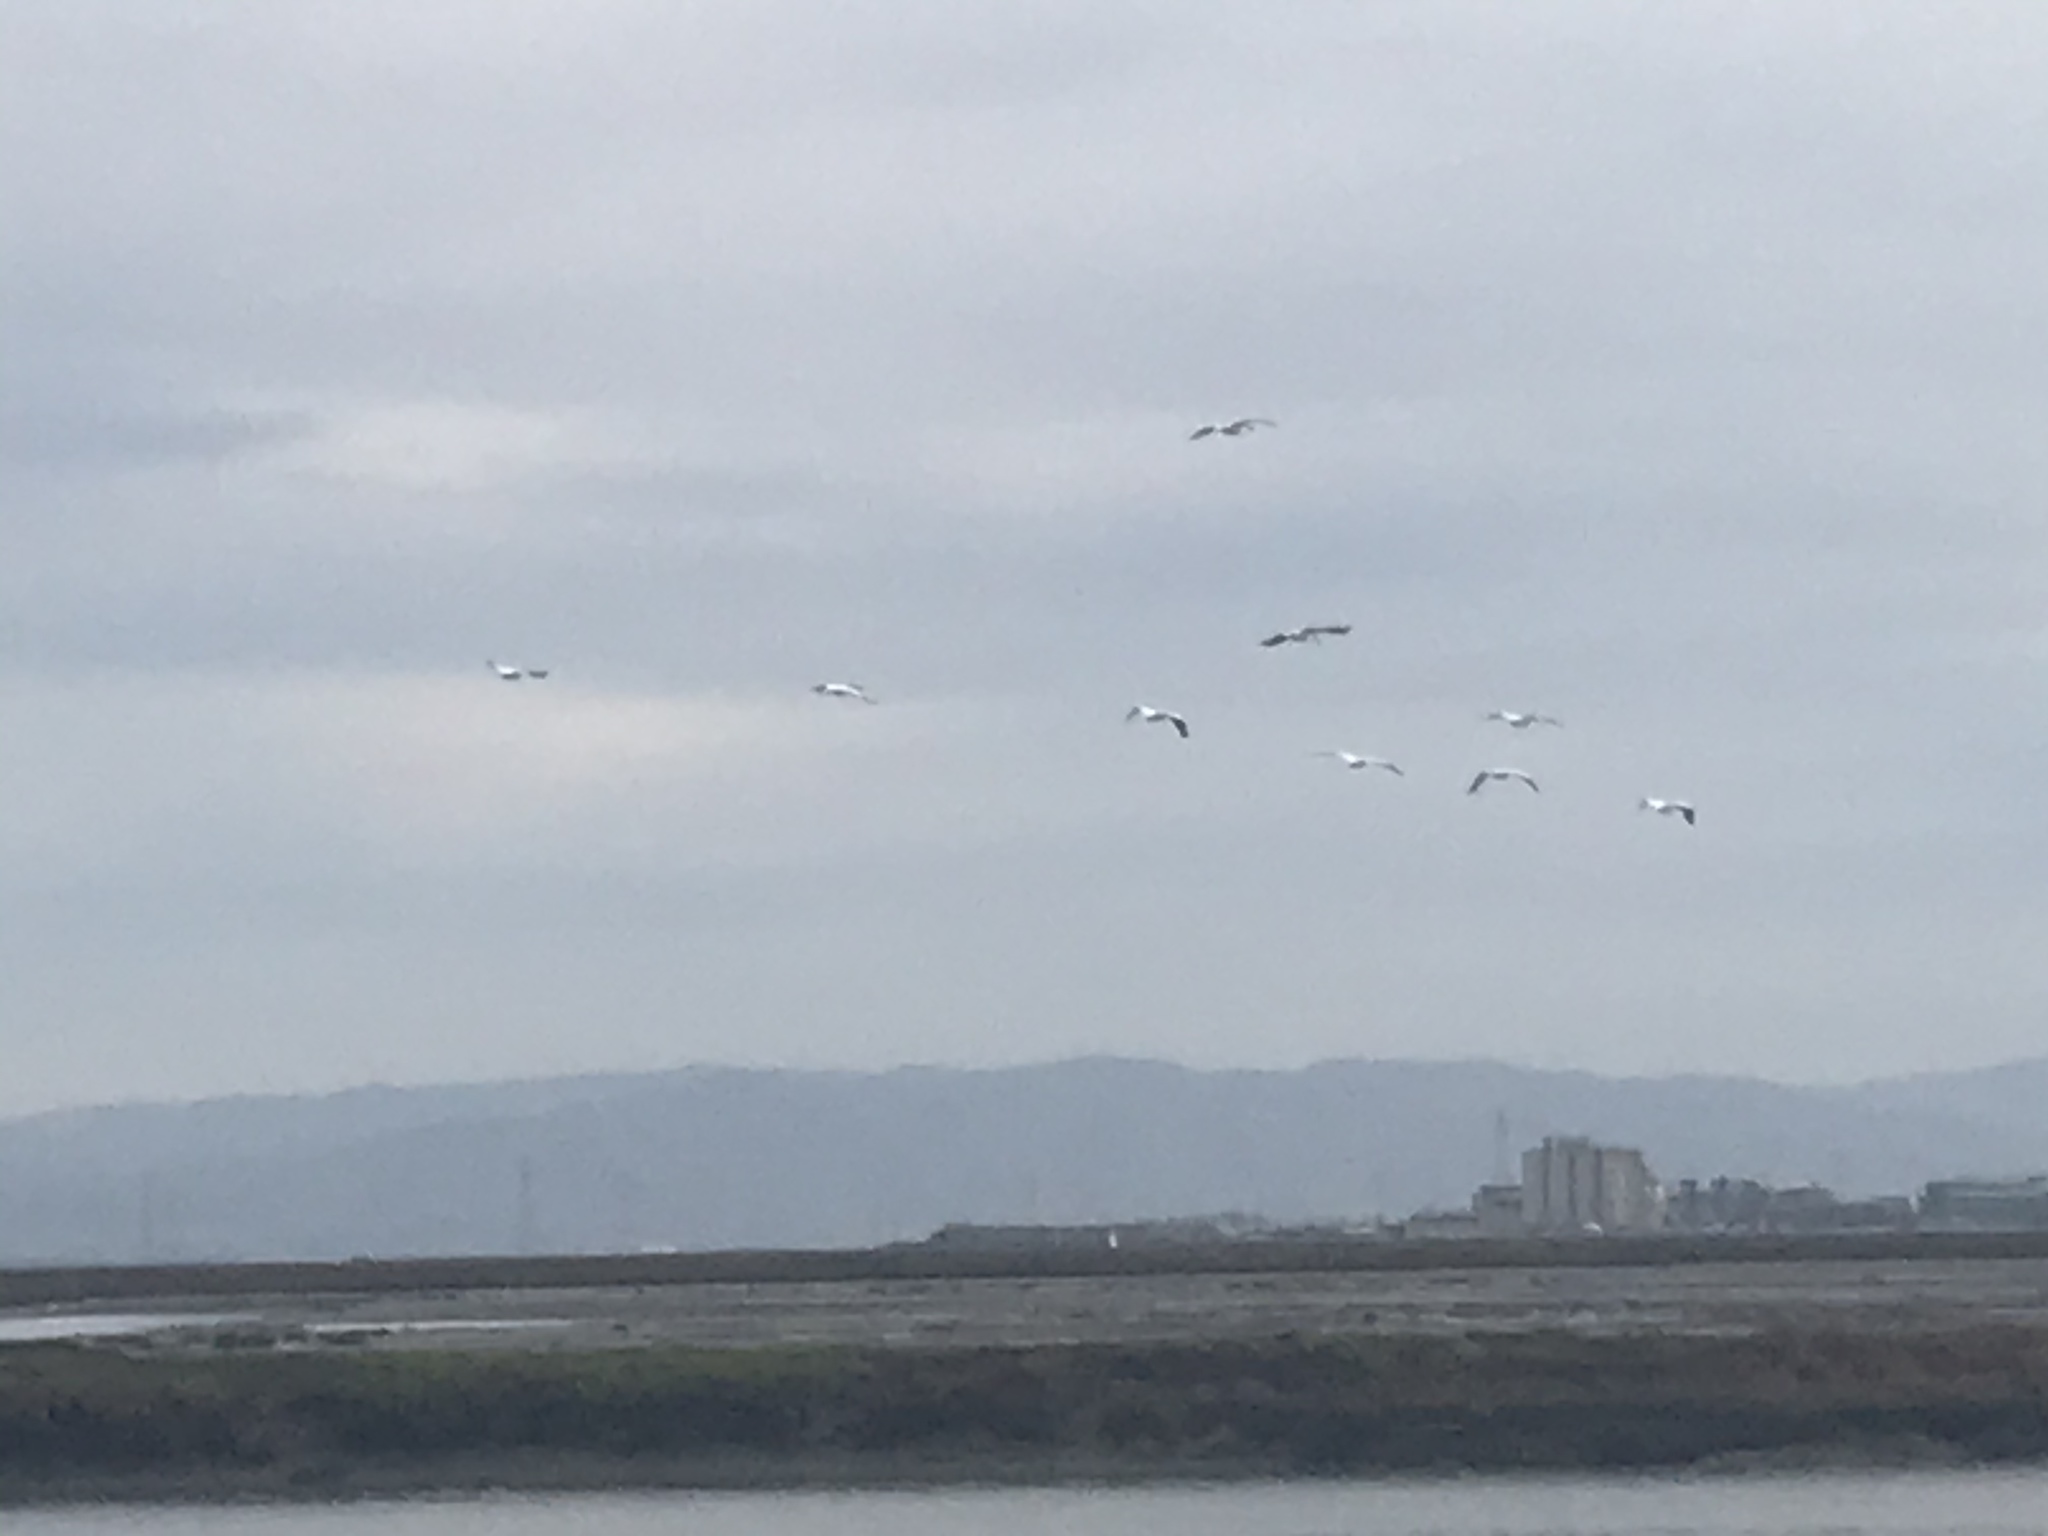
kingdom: Animalia
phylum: Chordata
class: Aves
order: Pelecaniformes
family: Pelecanidae
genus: Pelecanus
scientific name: Pelecanus erythrorhynchos
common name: American white pelican
